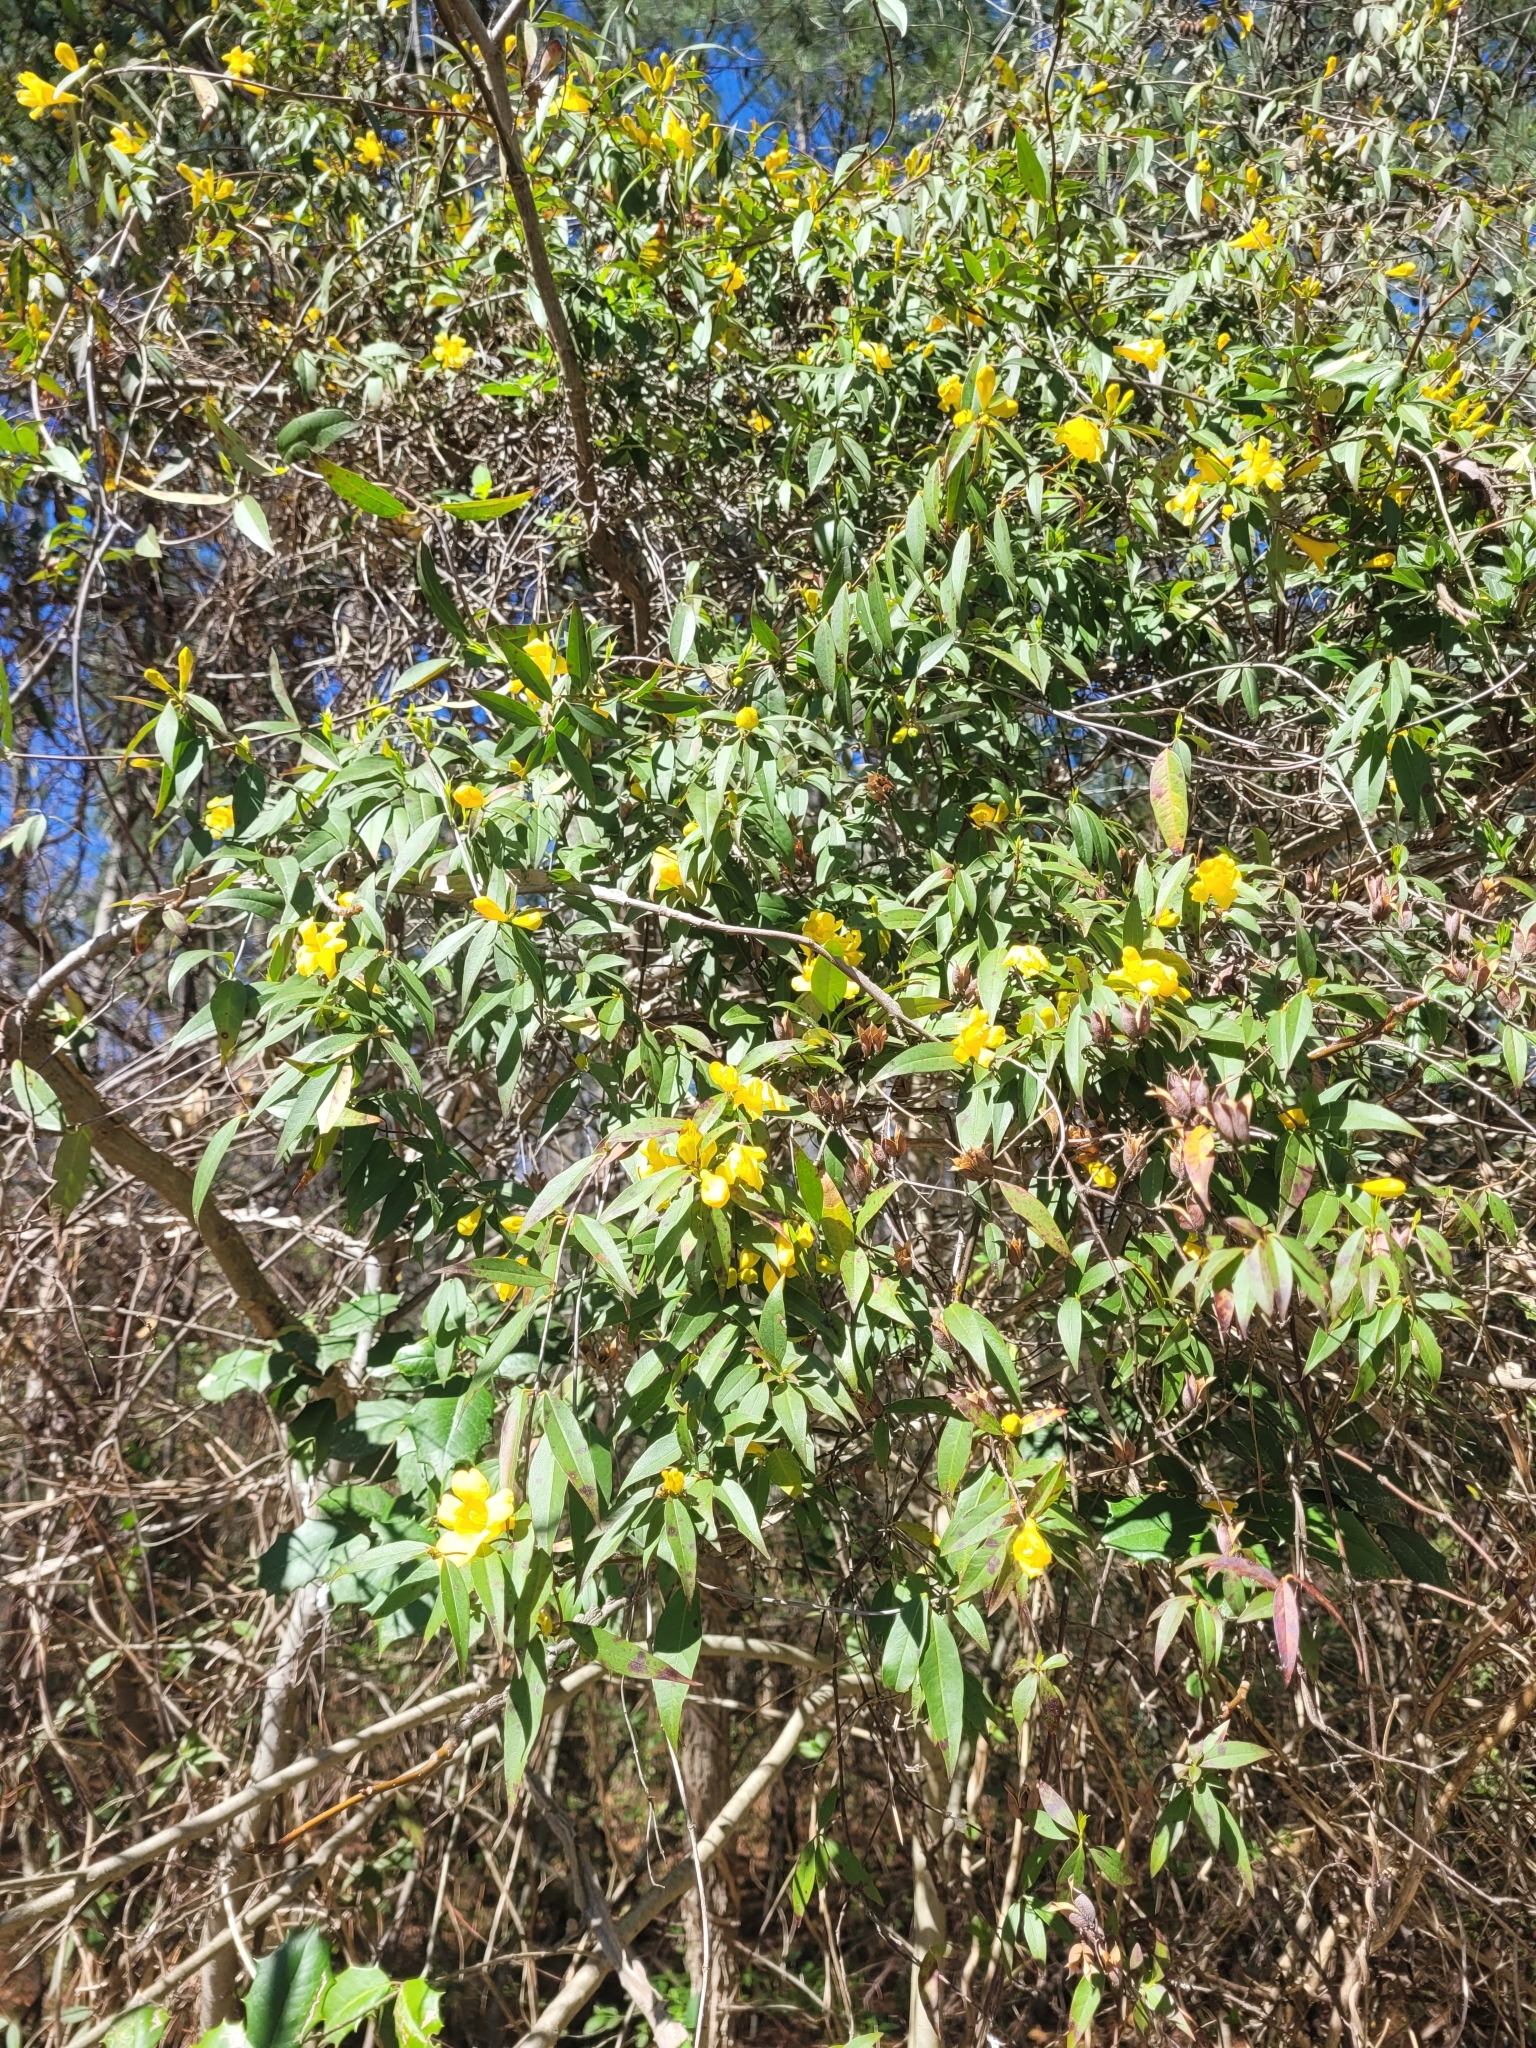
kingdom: Plantae
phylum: Tracheophyta
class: Magnoliopsida
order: Gentianales
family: Gelsemiaceae
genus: Gelsemium
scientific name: Gelsemium sempervirens
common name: Carolina-jasmine
